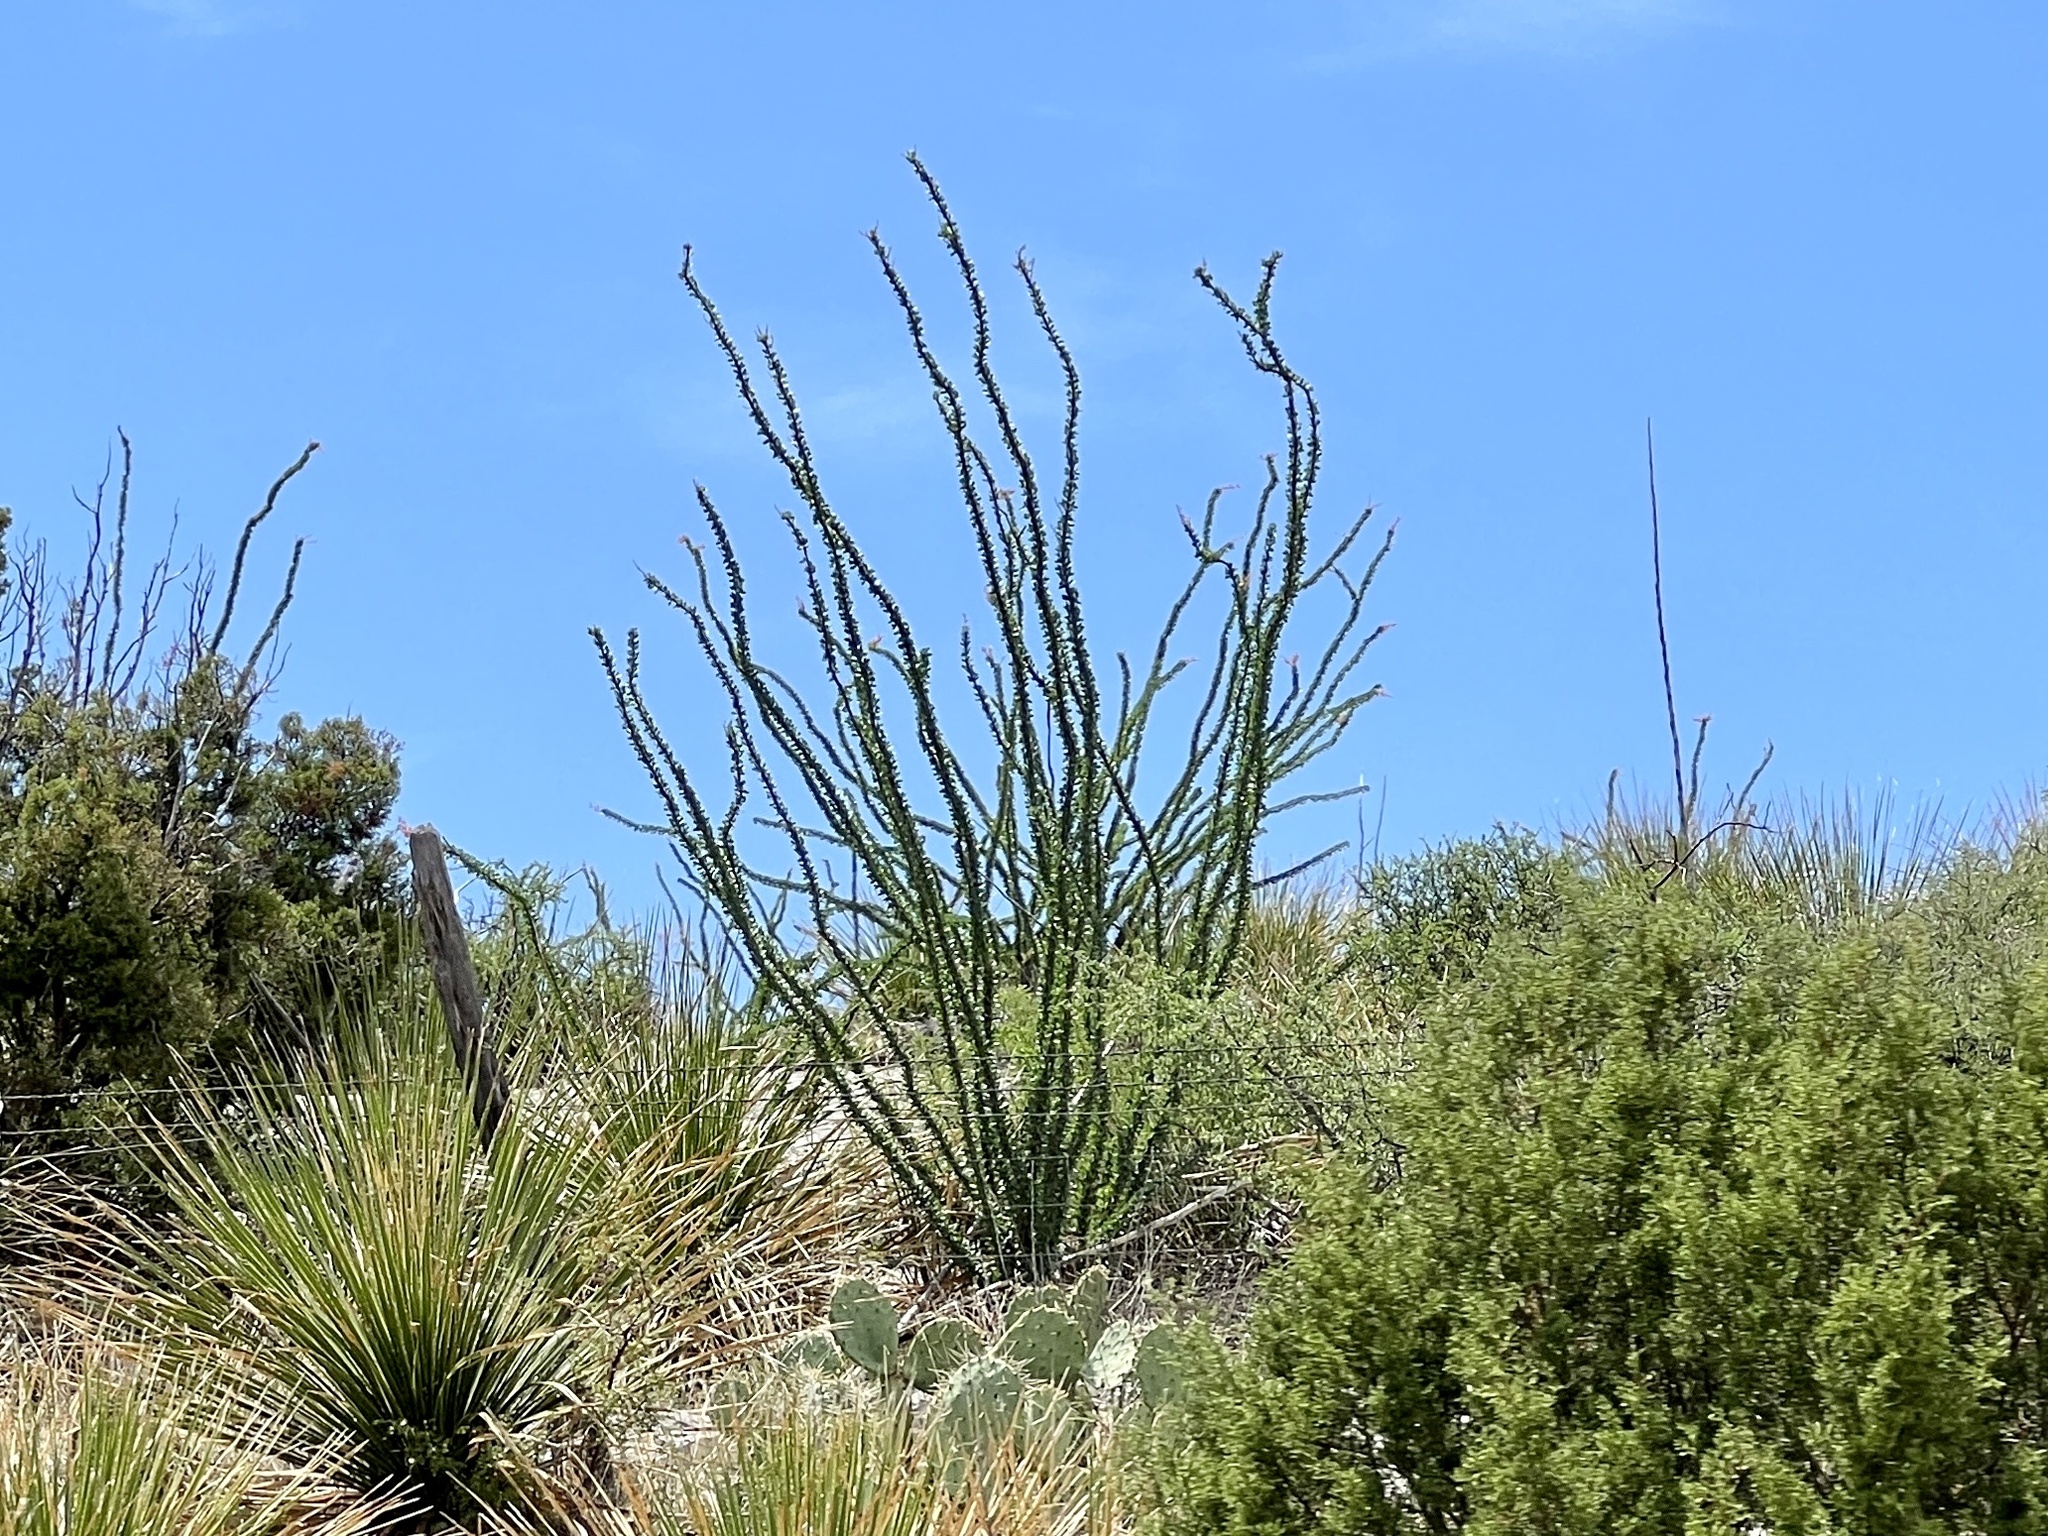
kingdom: Plantae
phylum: Tracheophyta
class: Magnoliopsida
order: Ericales
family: Fouquieriaceae
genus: Fouquieria
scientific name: Fouquieria splendens
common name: Vine-cactus
